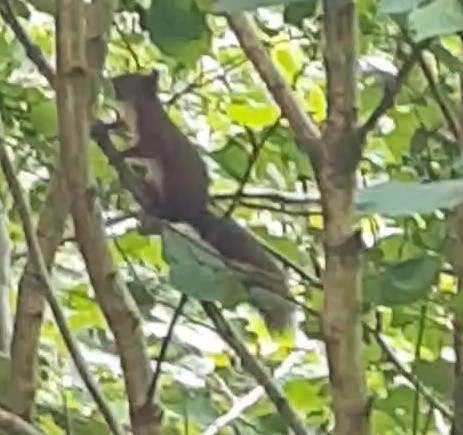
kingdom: Animalia
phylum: Chordata
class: Mammalia
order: Rodentia
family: Sciuridae
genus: Sciurus
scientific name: Sciurus vulgaris
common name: Eurasian red squirrel
